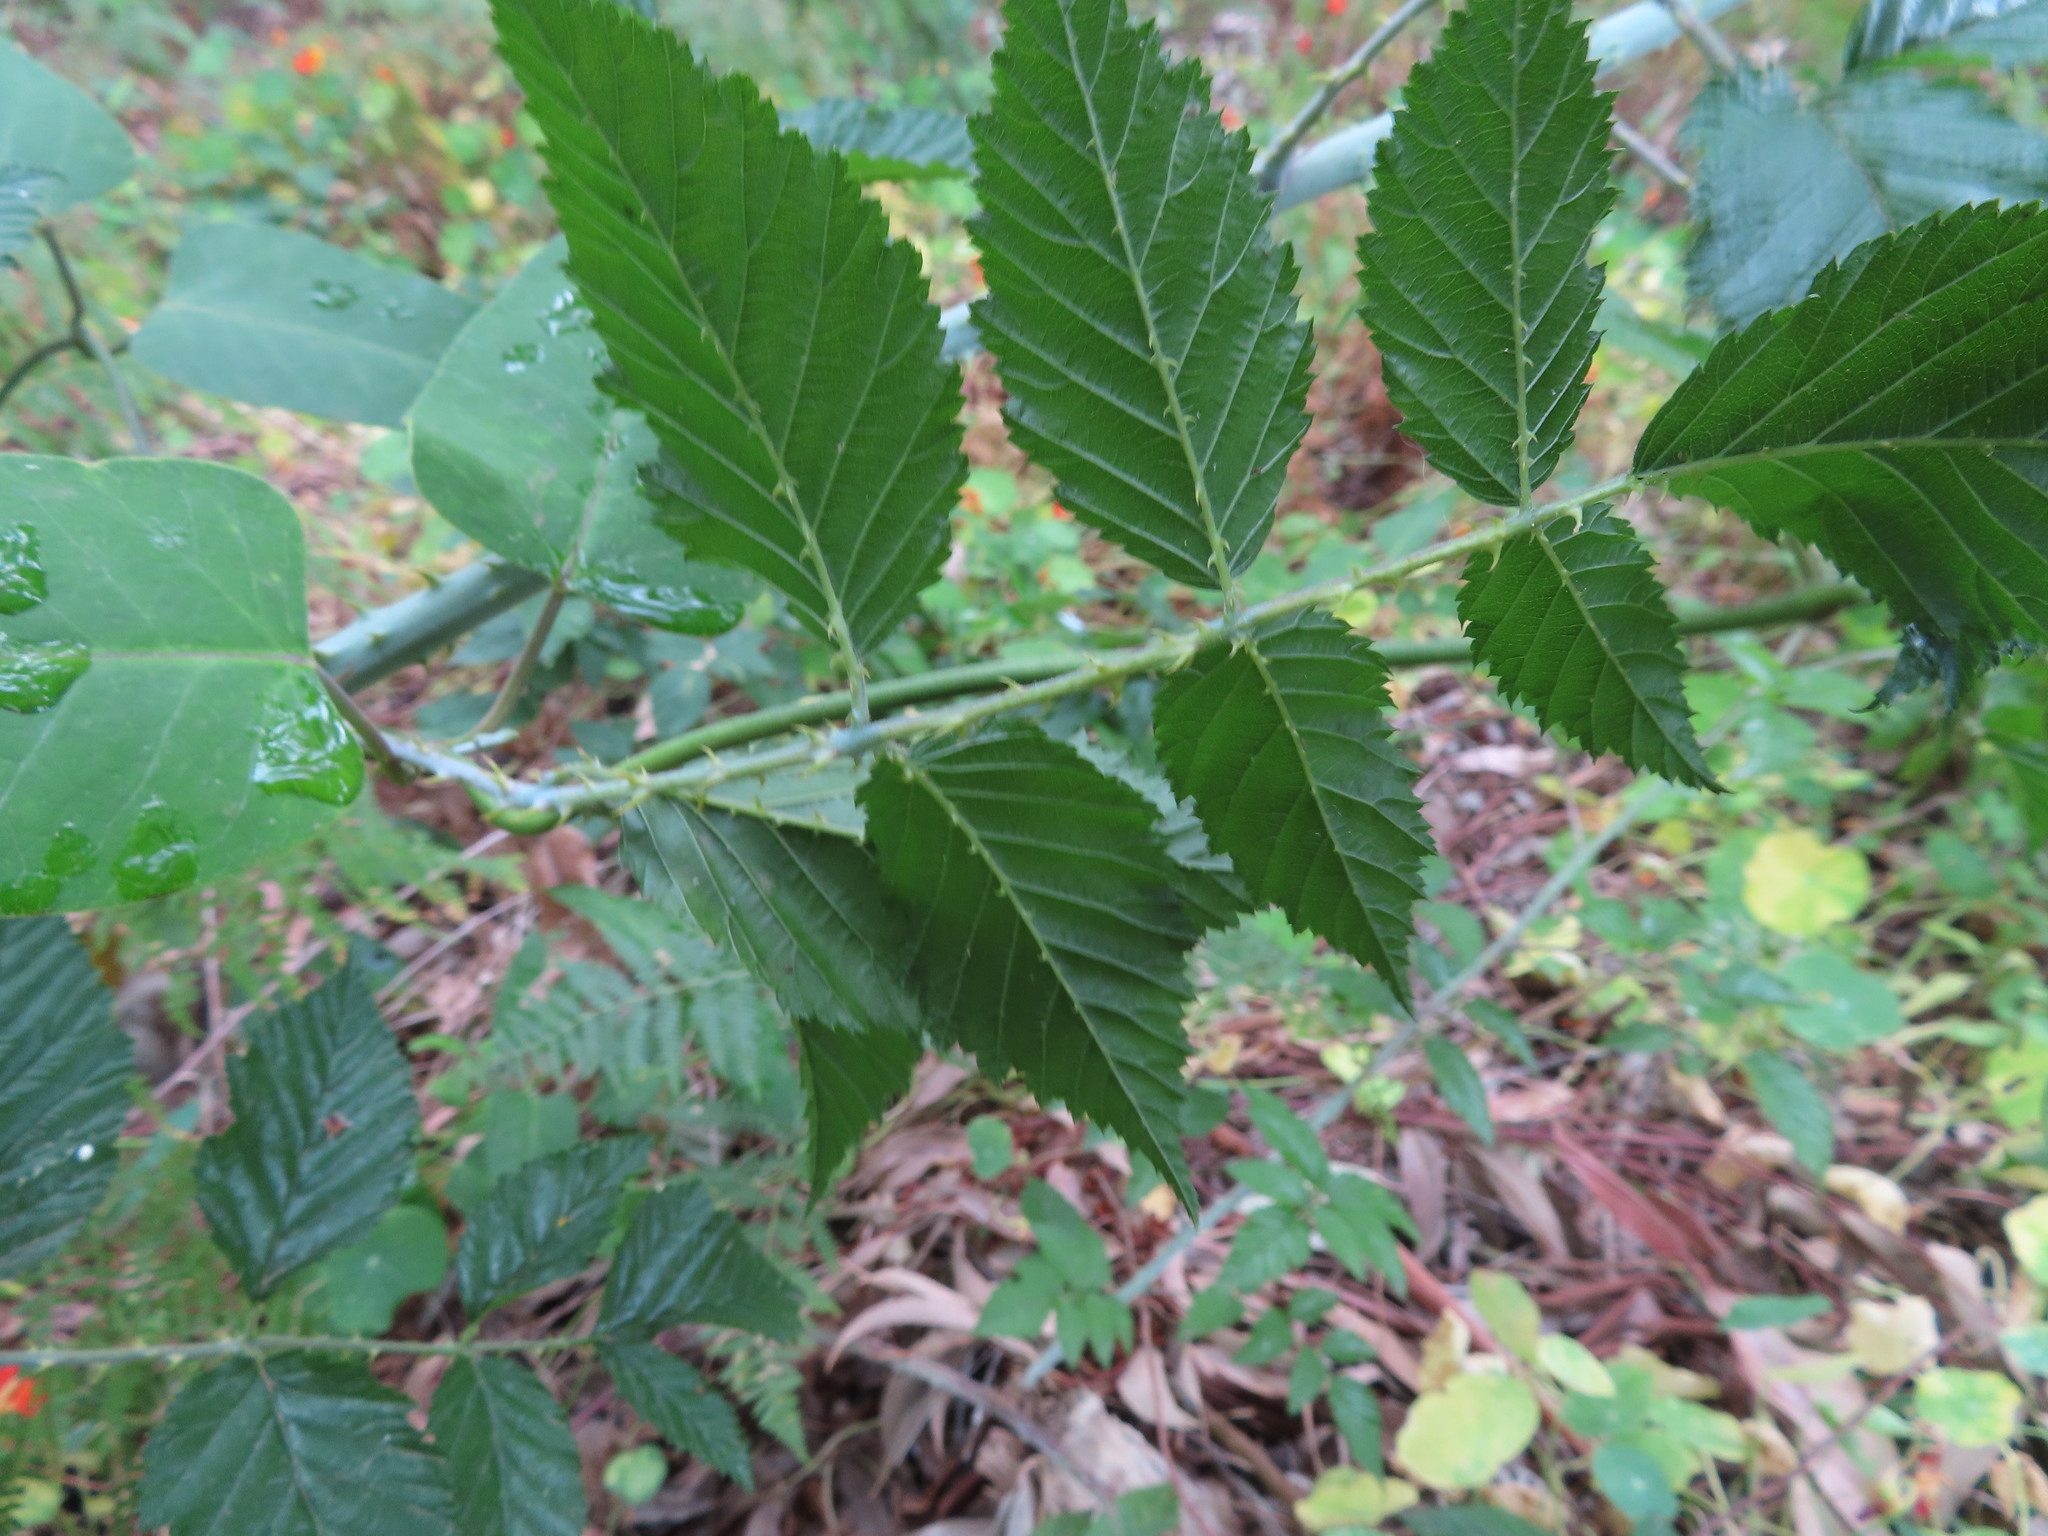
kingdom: Plantae
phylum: Tracheophyta
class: Magnoliopsida
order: Rosales
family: Rosaceae
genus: Rubus
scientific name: Rubus pinnatus
